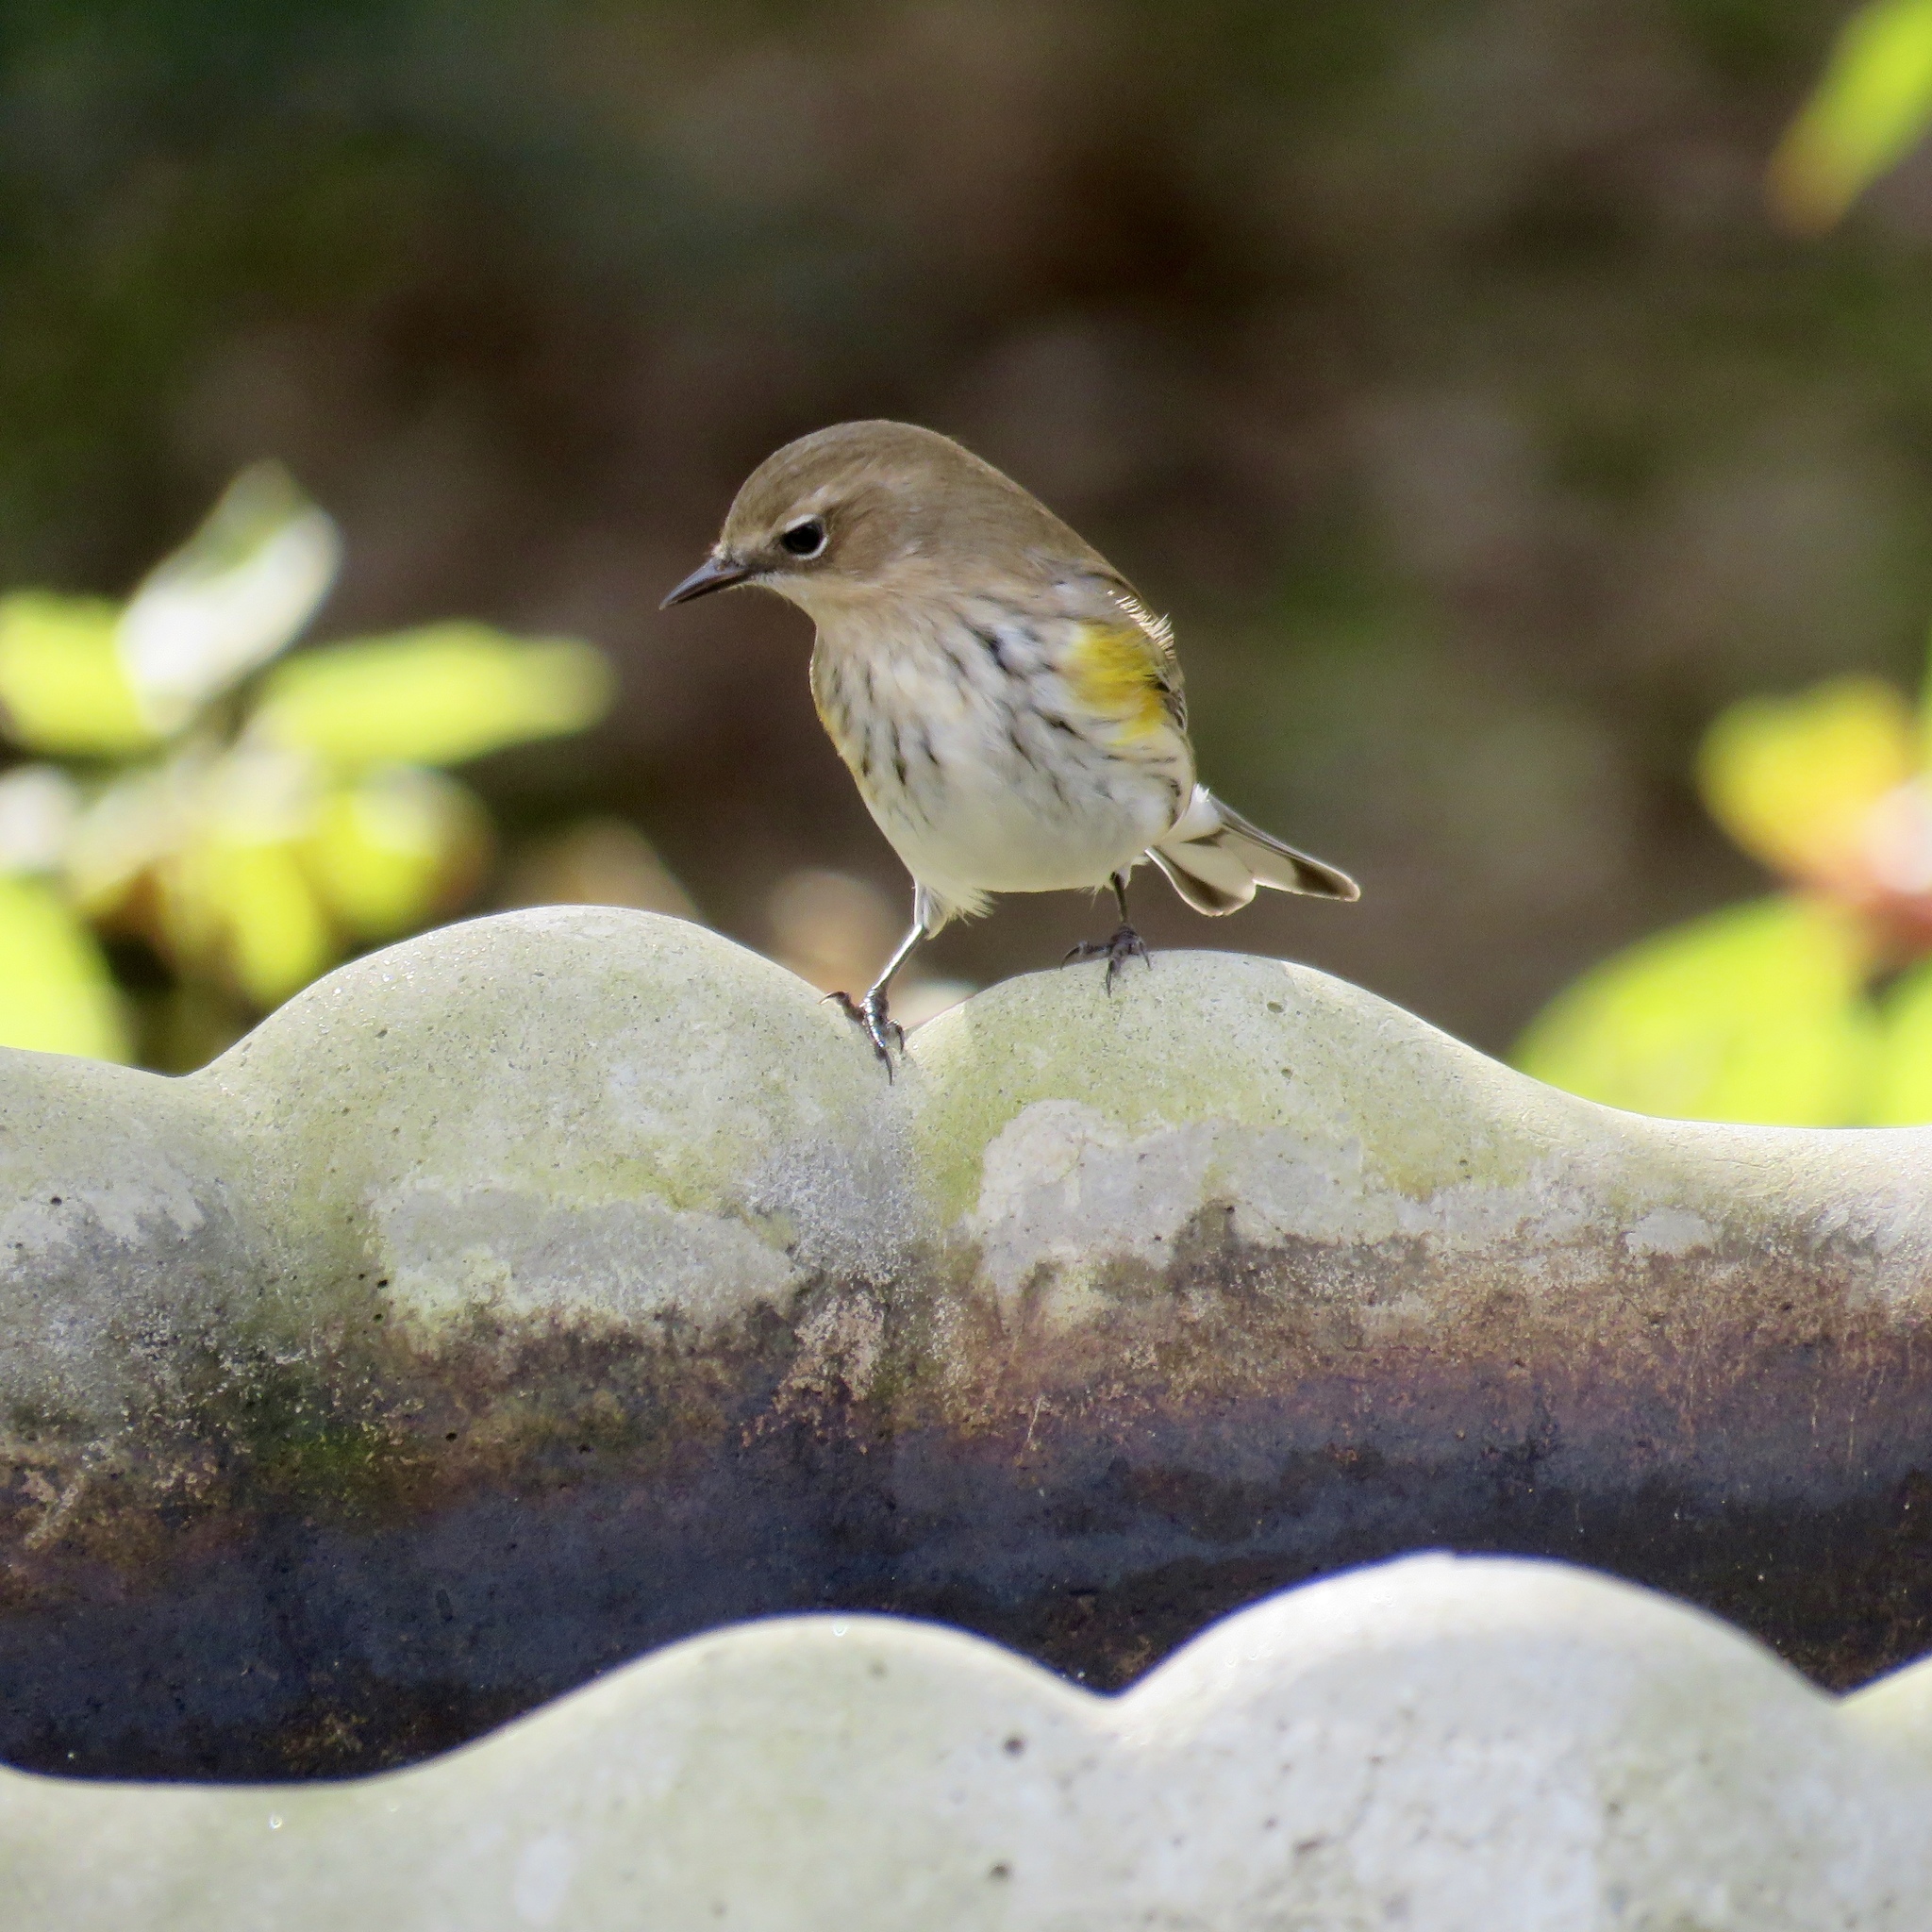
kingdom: Animalia
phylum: Chordata
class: Aves
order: Passeriformes
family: Parulidae
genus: Setophaga
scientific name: Setophaga coronata
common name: Myrtle warbler
